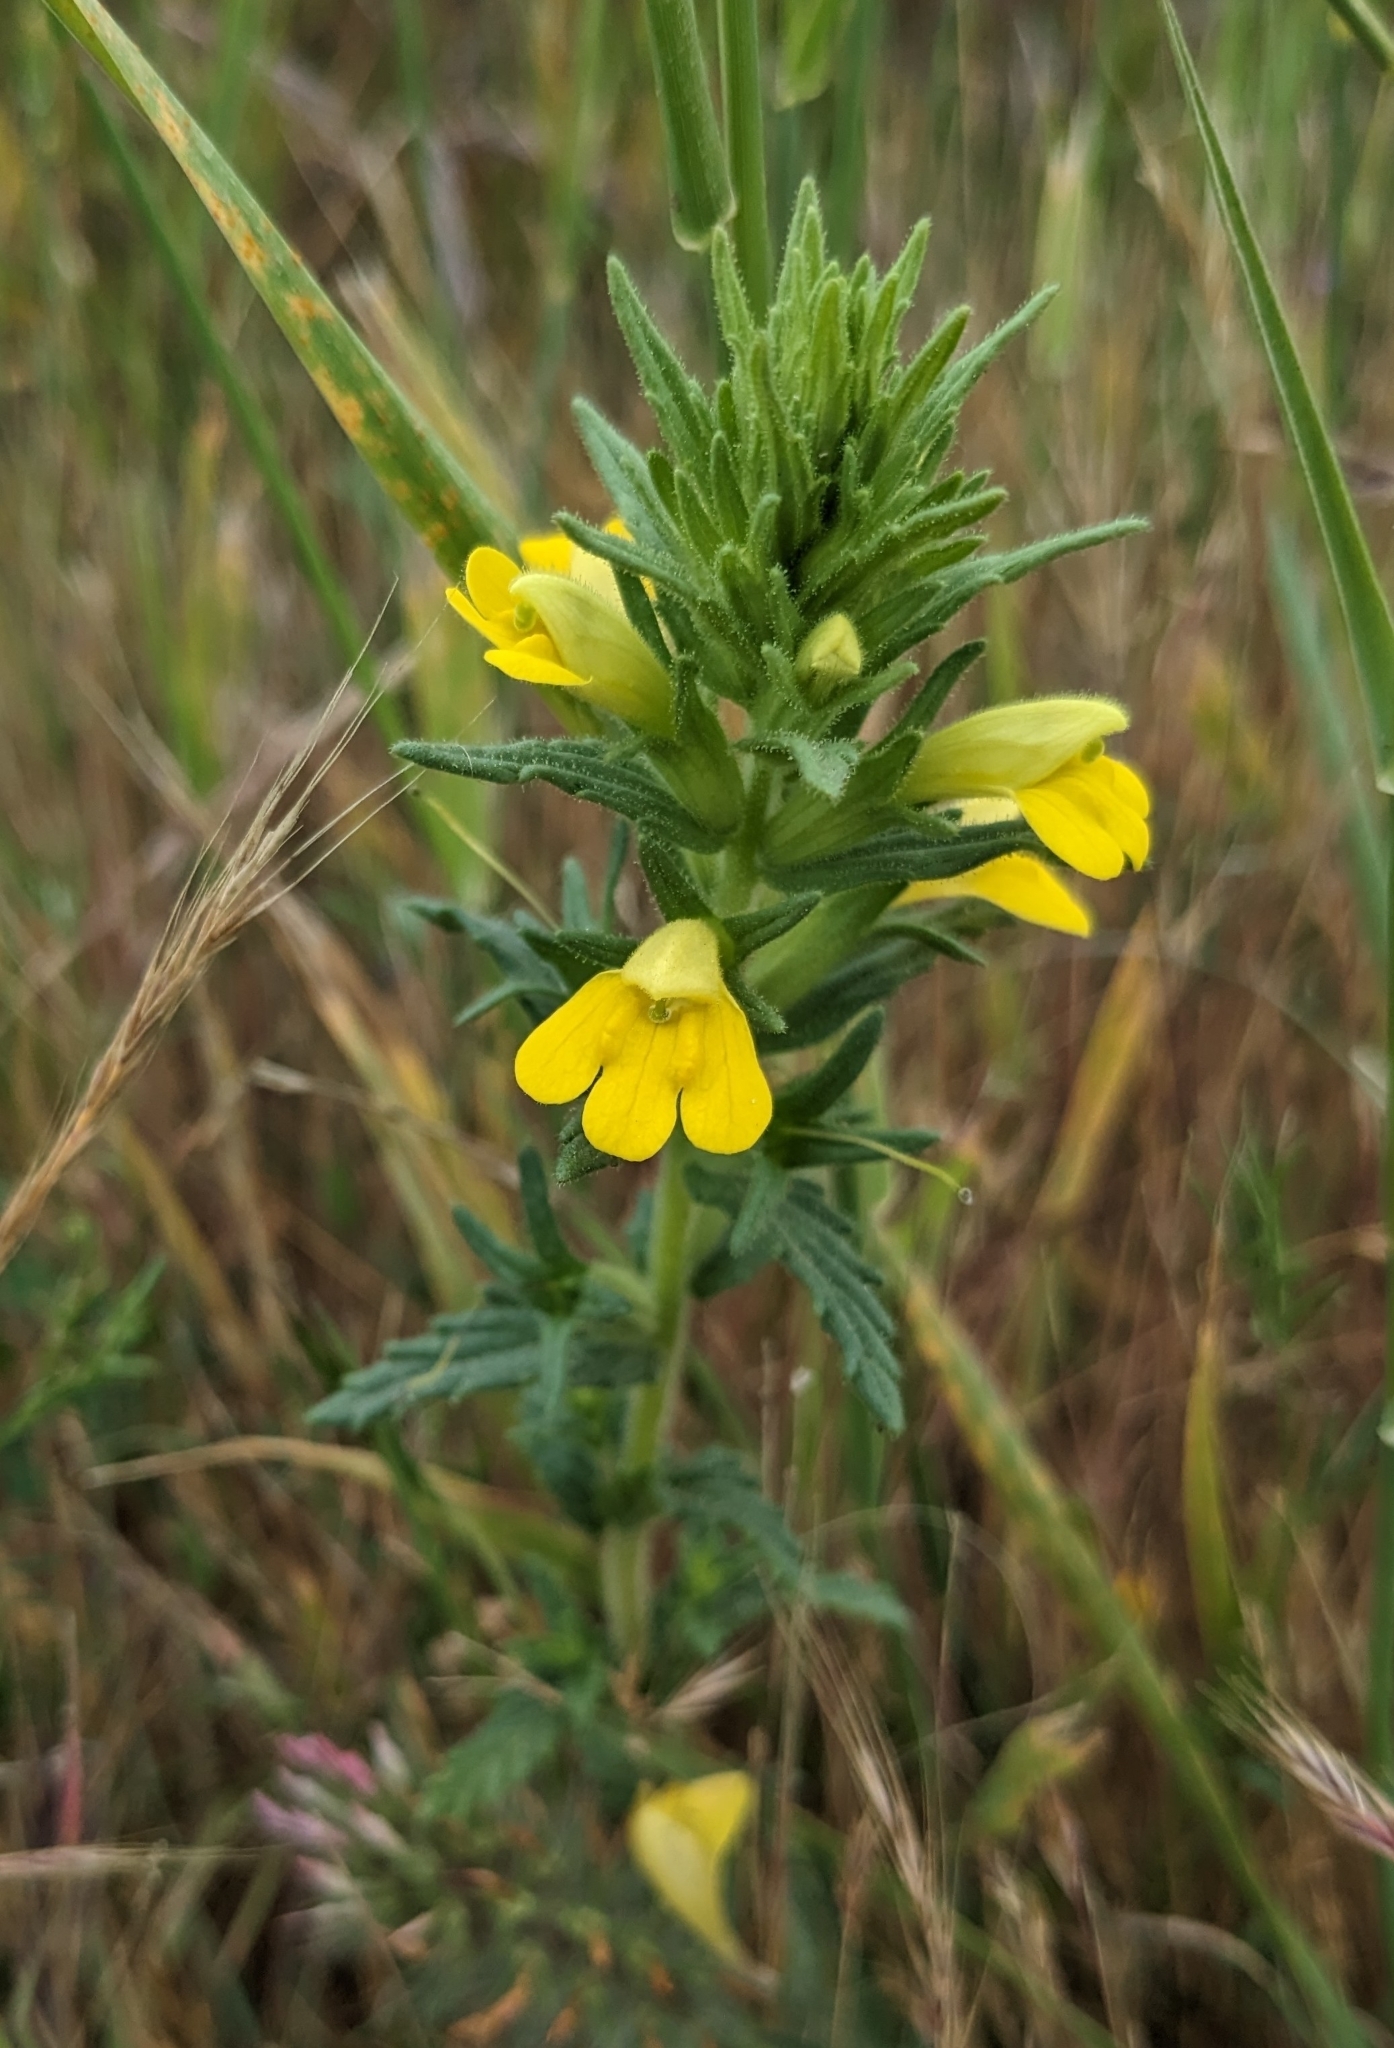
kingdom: Plantae
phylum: Tracheophyta
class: Magnoliopsida
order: Lamiales
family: Orobanchaceae
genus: Bellardia
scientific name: Bellardia viscosa
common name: Sticky parentucellia
